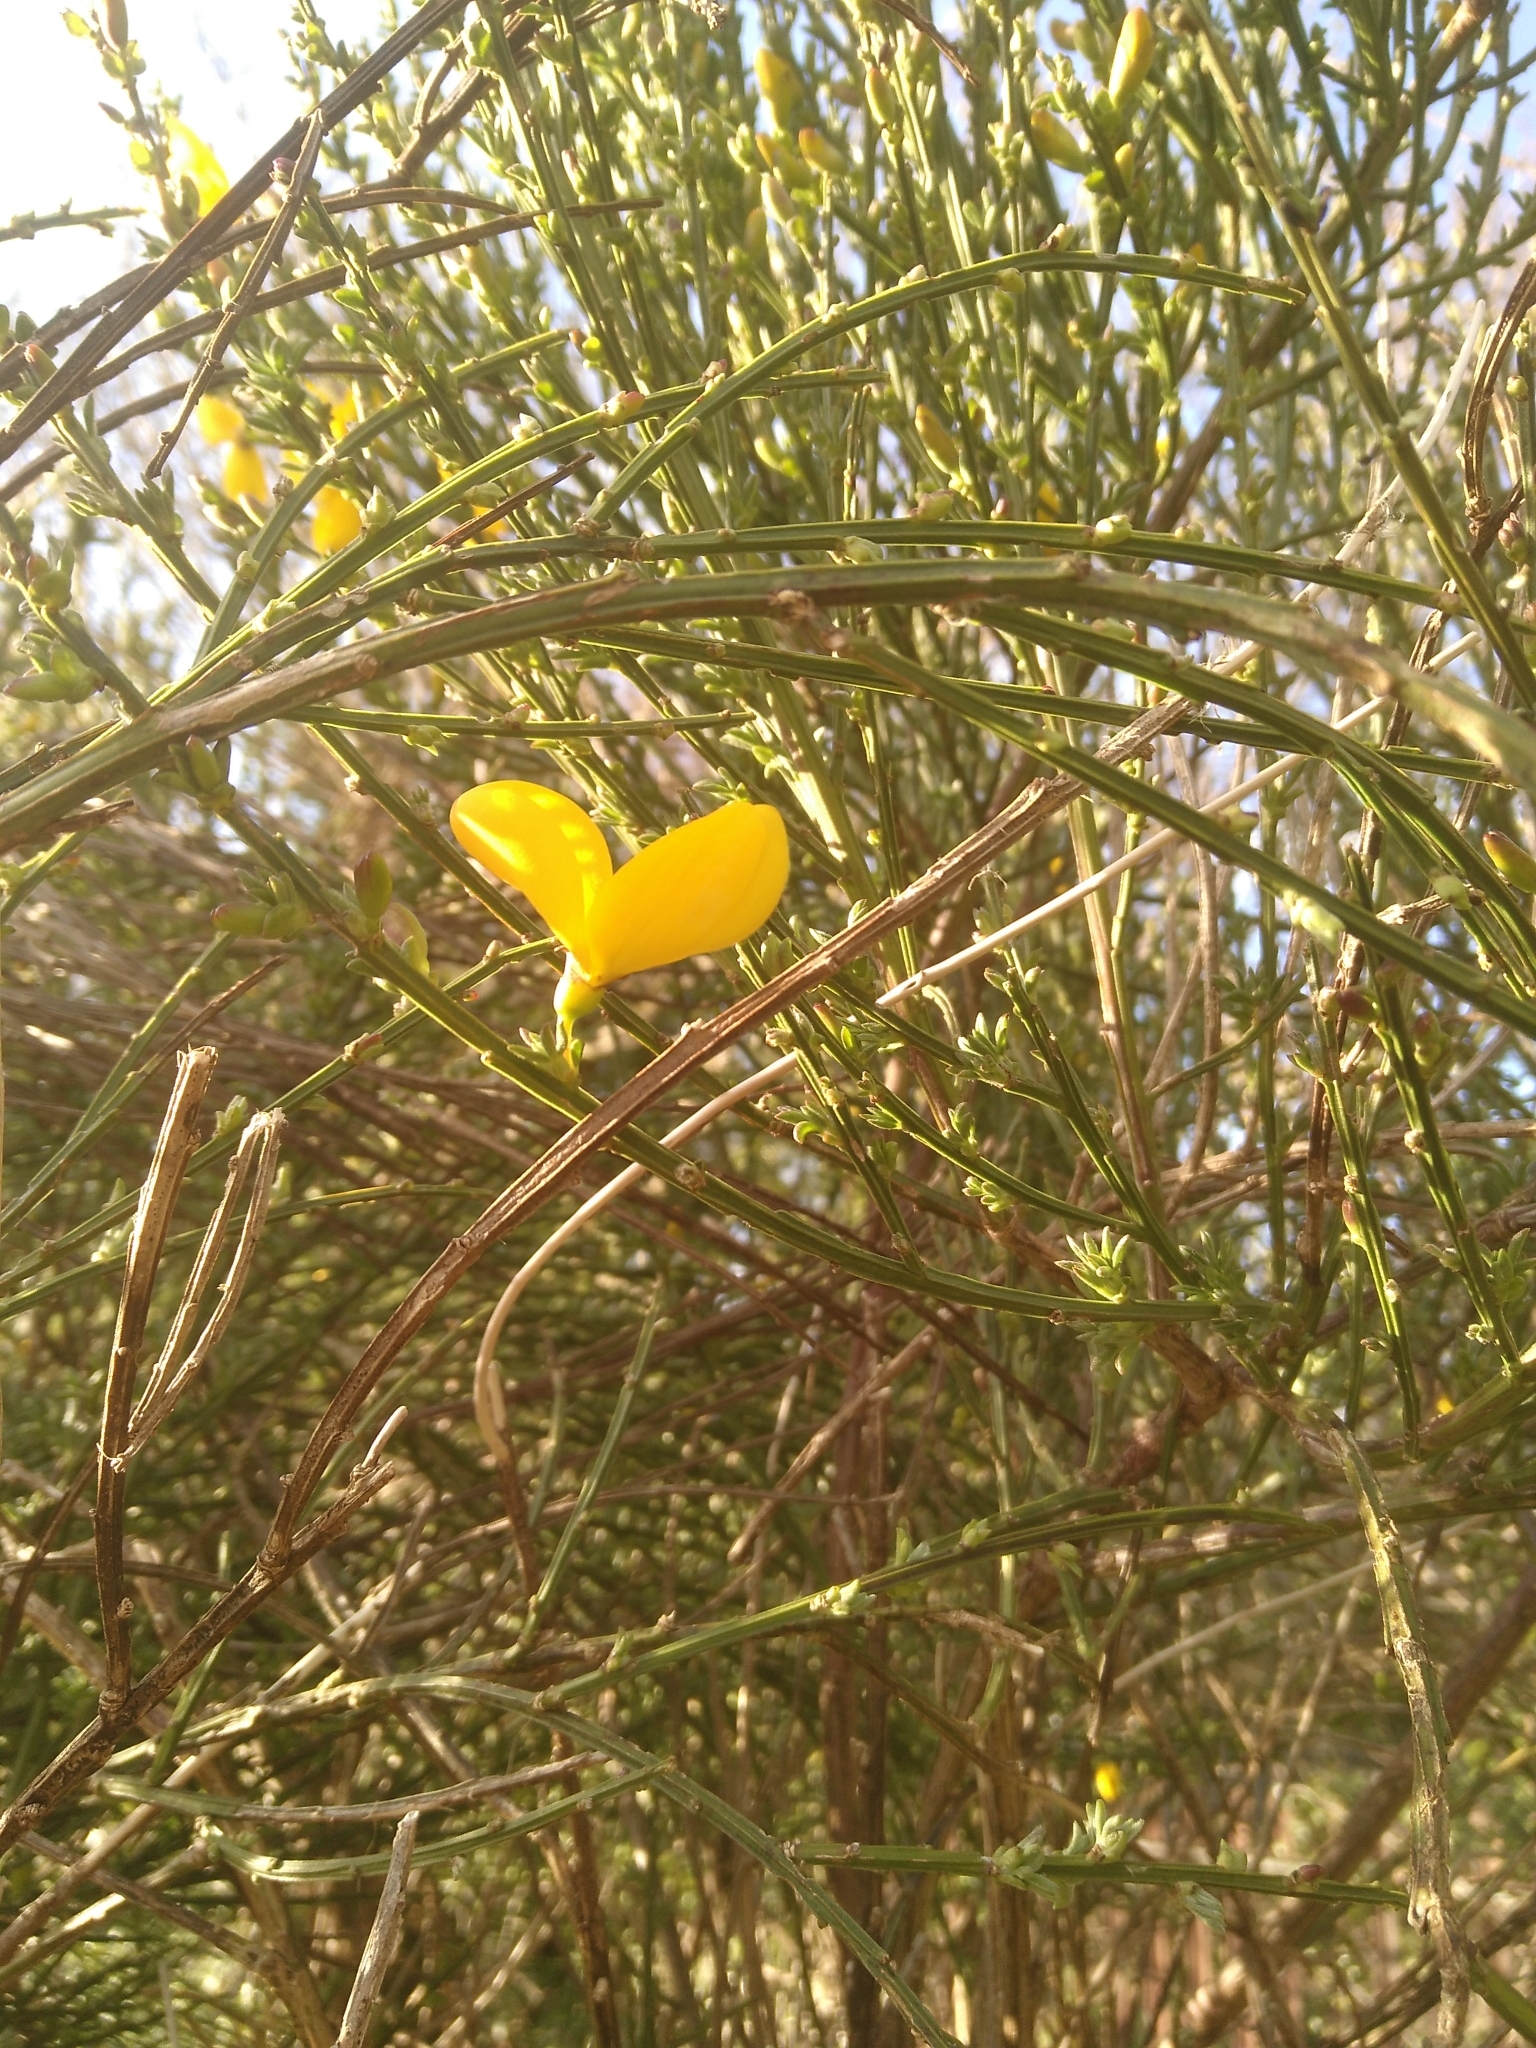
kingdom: Plantae
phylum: Tracheophyta
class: Magnoliopsida
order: Fabales
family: Fabaceae
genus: Cytisus
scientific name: Cytisus scoparius
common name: Scotch broom
